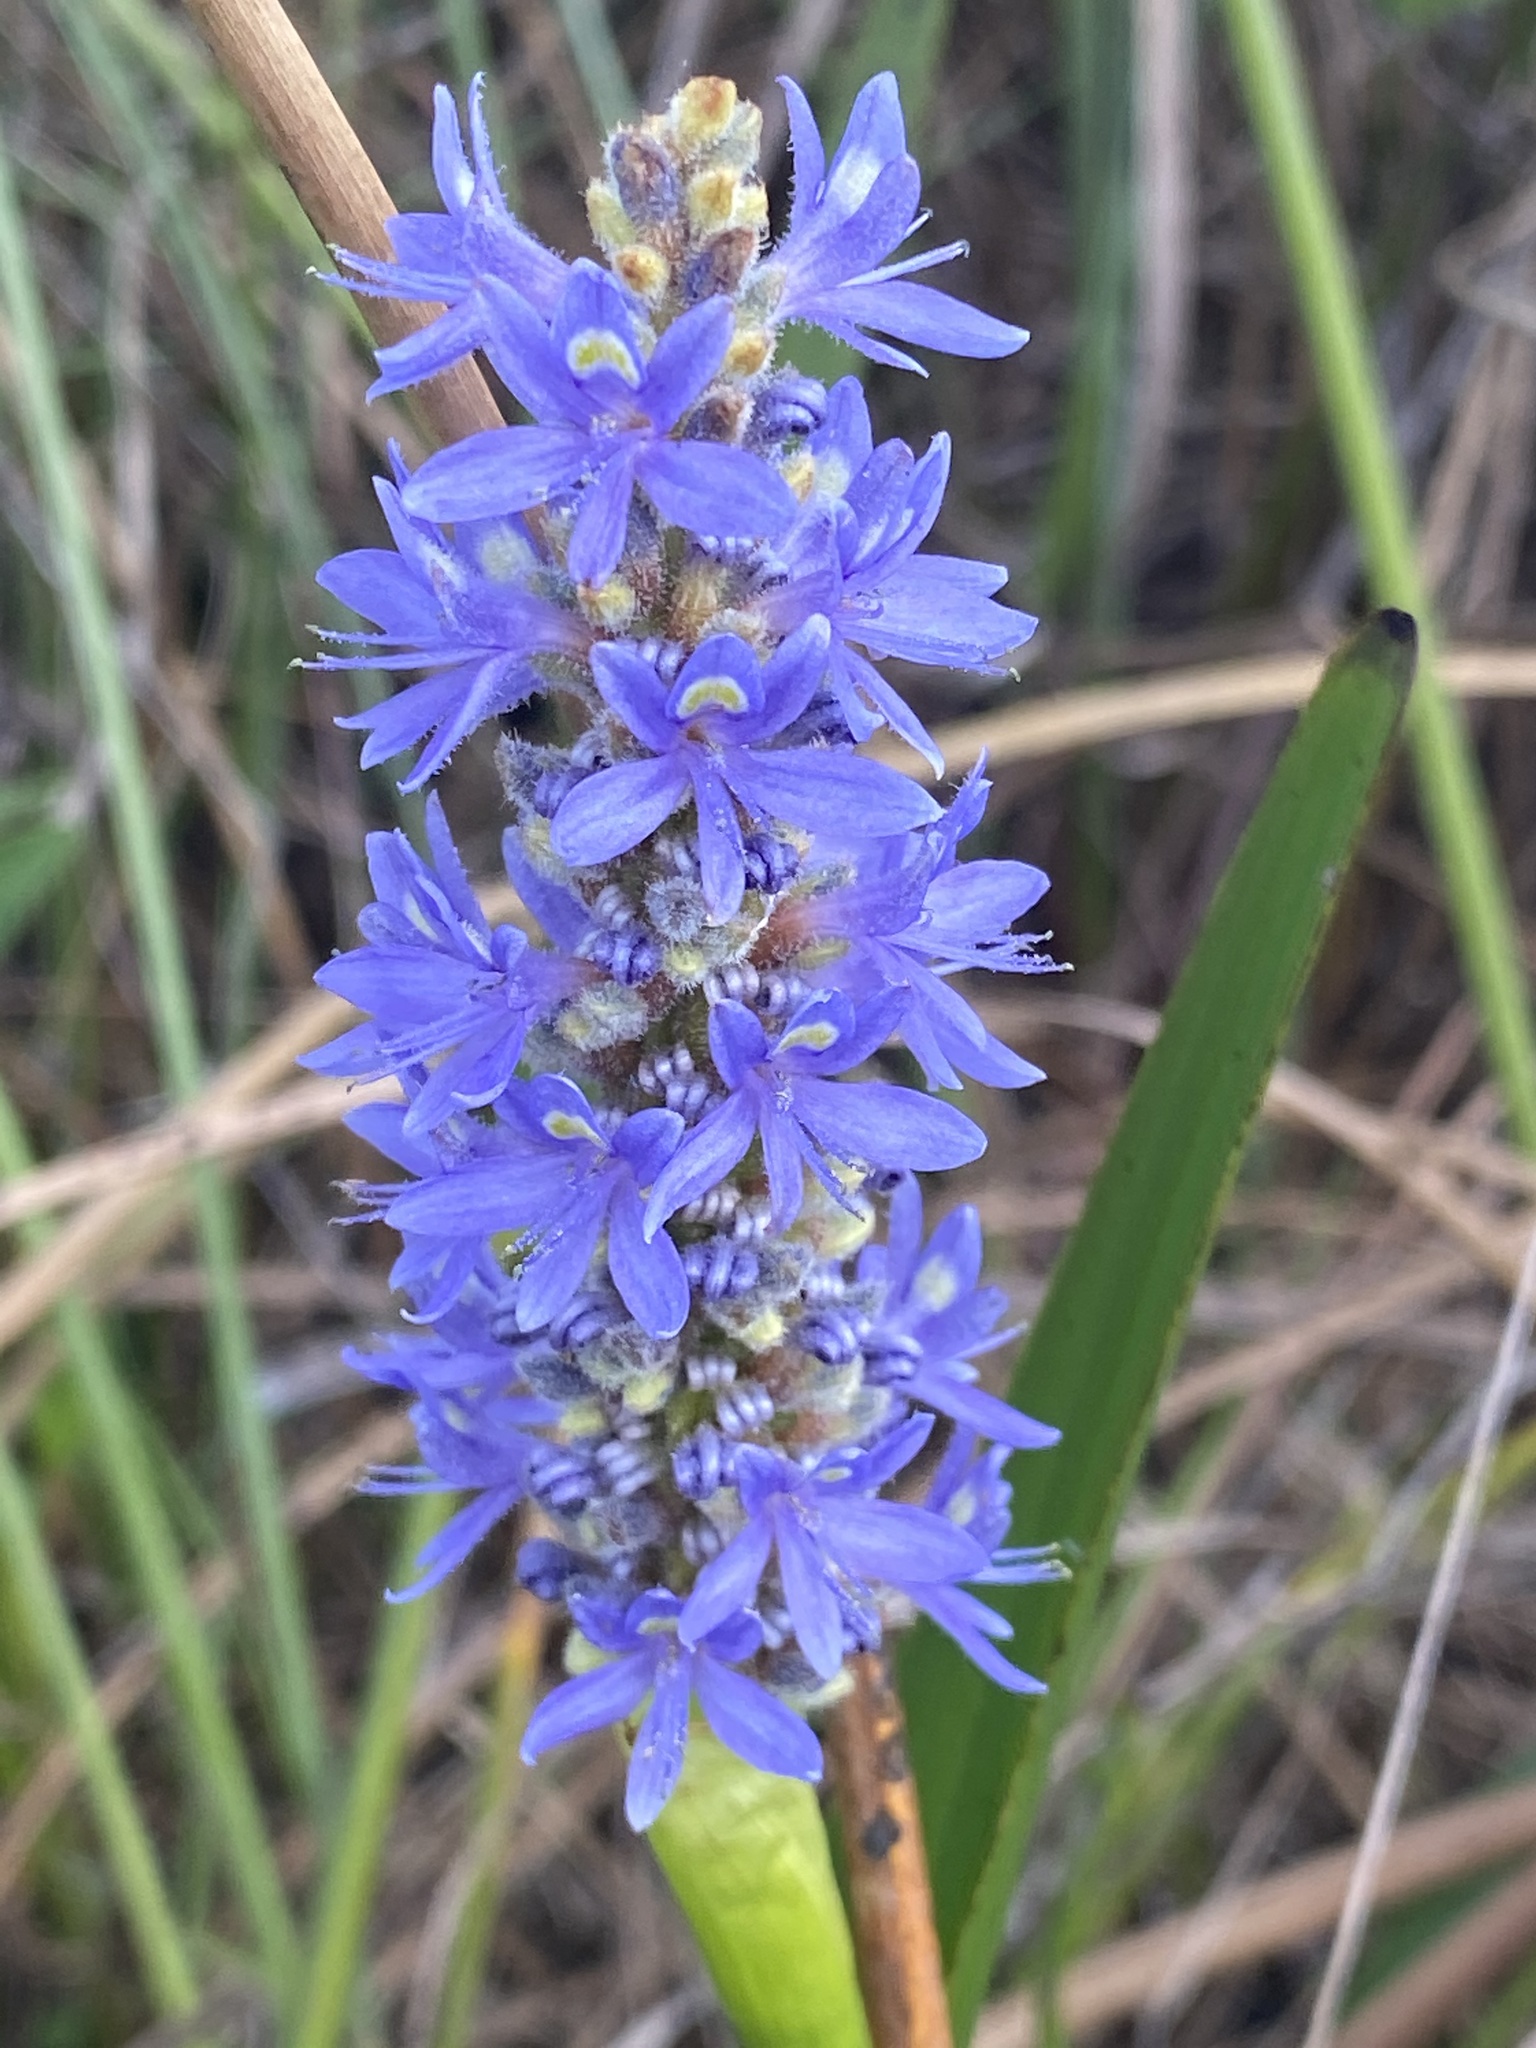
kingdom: Plantae
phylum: Tracheophyta
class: Liliopsida
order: Commelinales
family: Pontederiaceae
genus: Pontederia
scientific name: Pontederia cordata
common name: Pickerelweed
